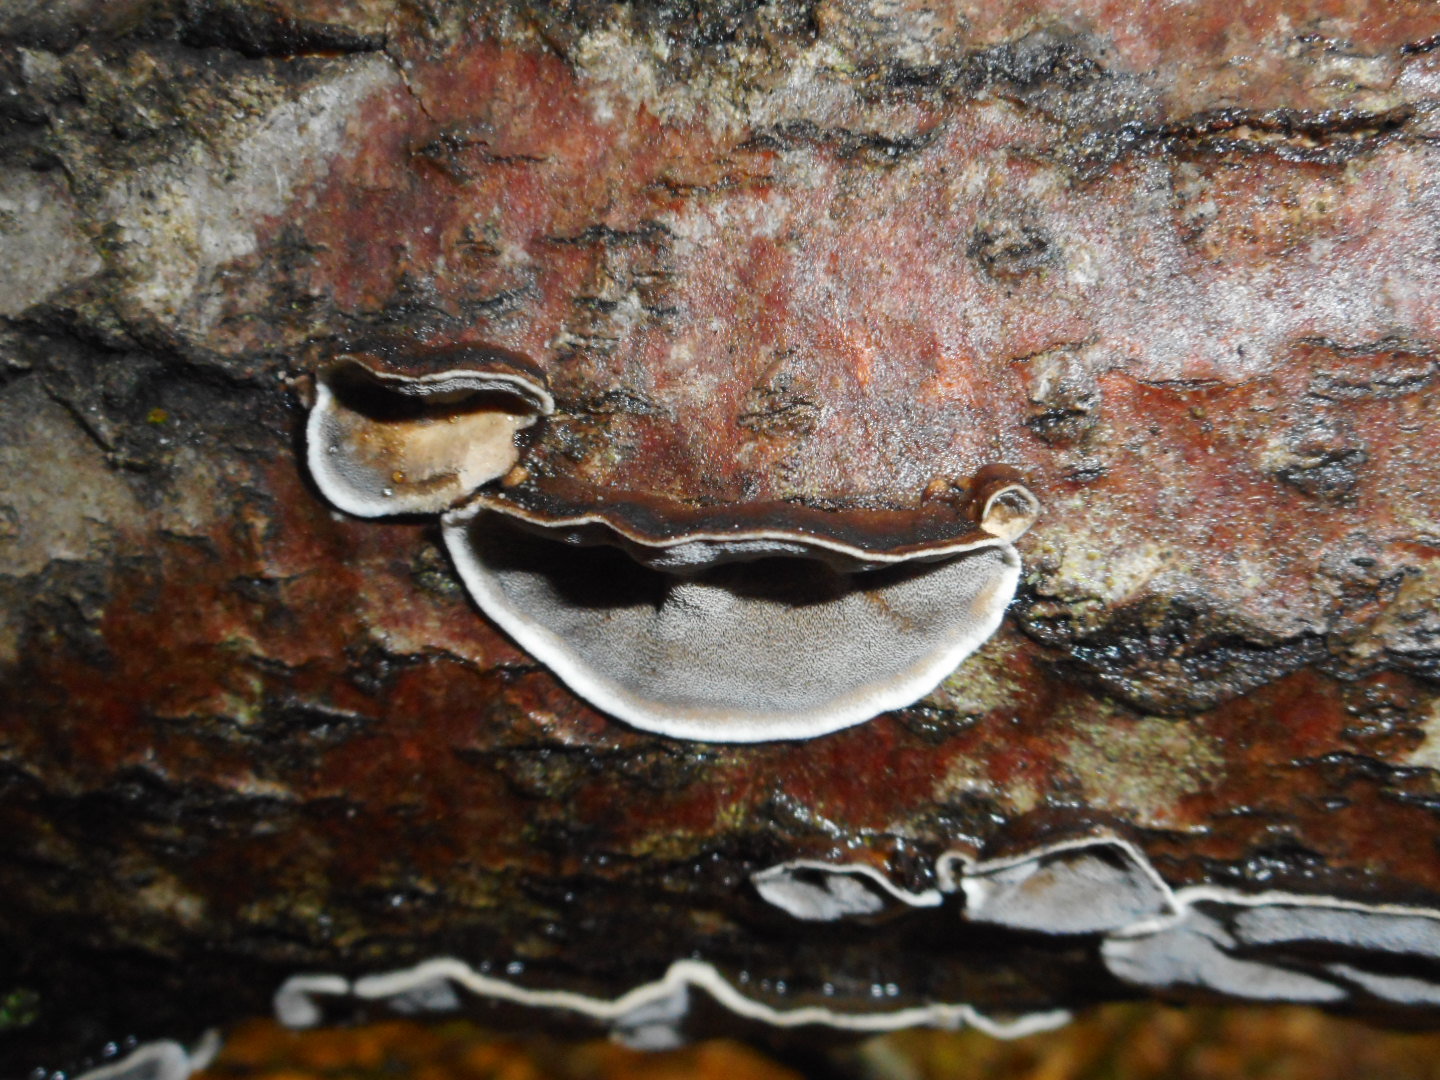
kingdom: Fungi
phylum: Basidiomycota
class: Agaricomycetes
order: Polyporales
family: Phanerochaetaceae
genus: Bjerkandera
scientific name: Bjerkandera adusta
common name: Smoky bracket
